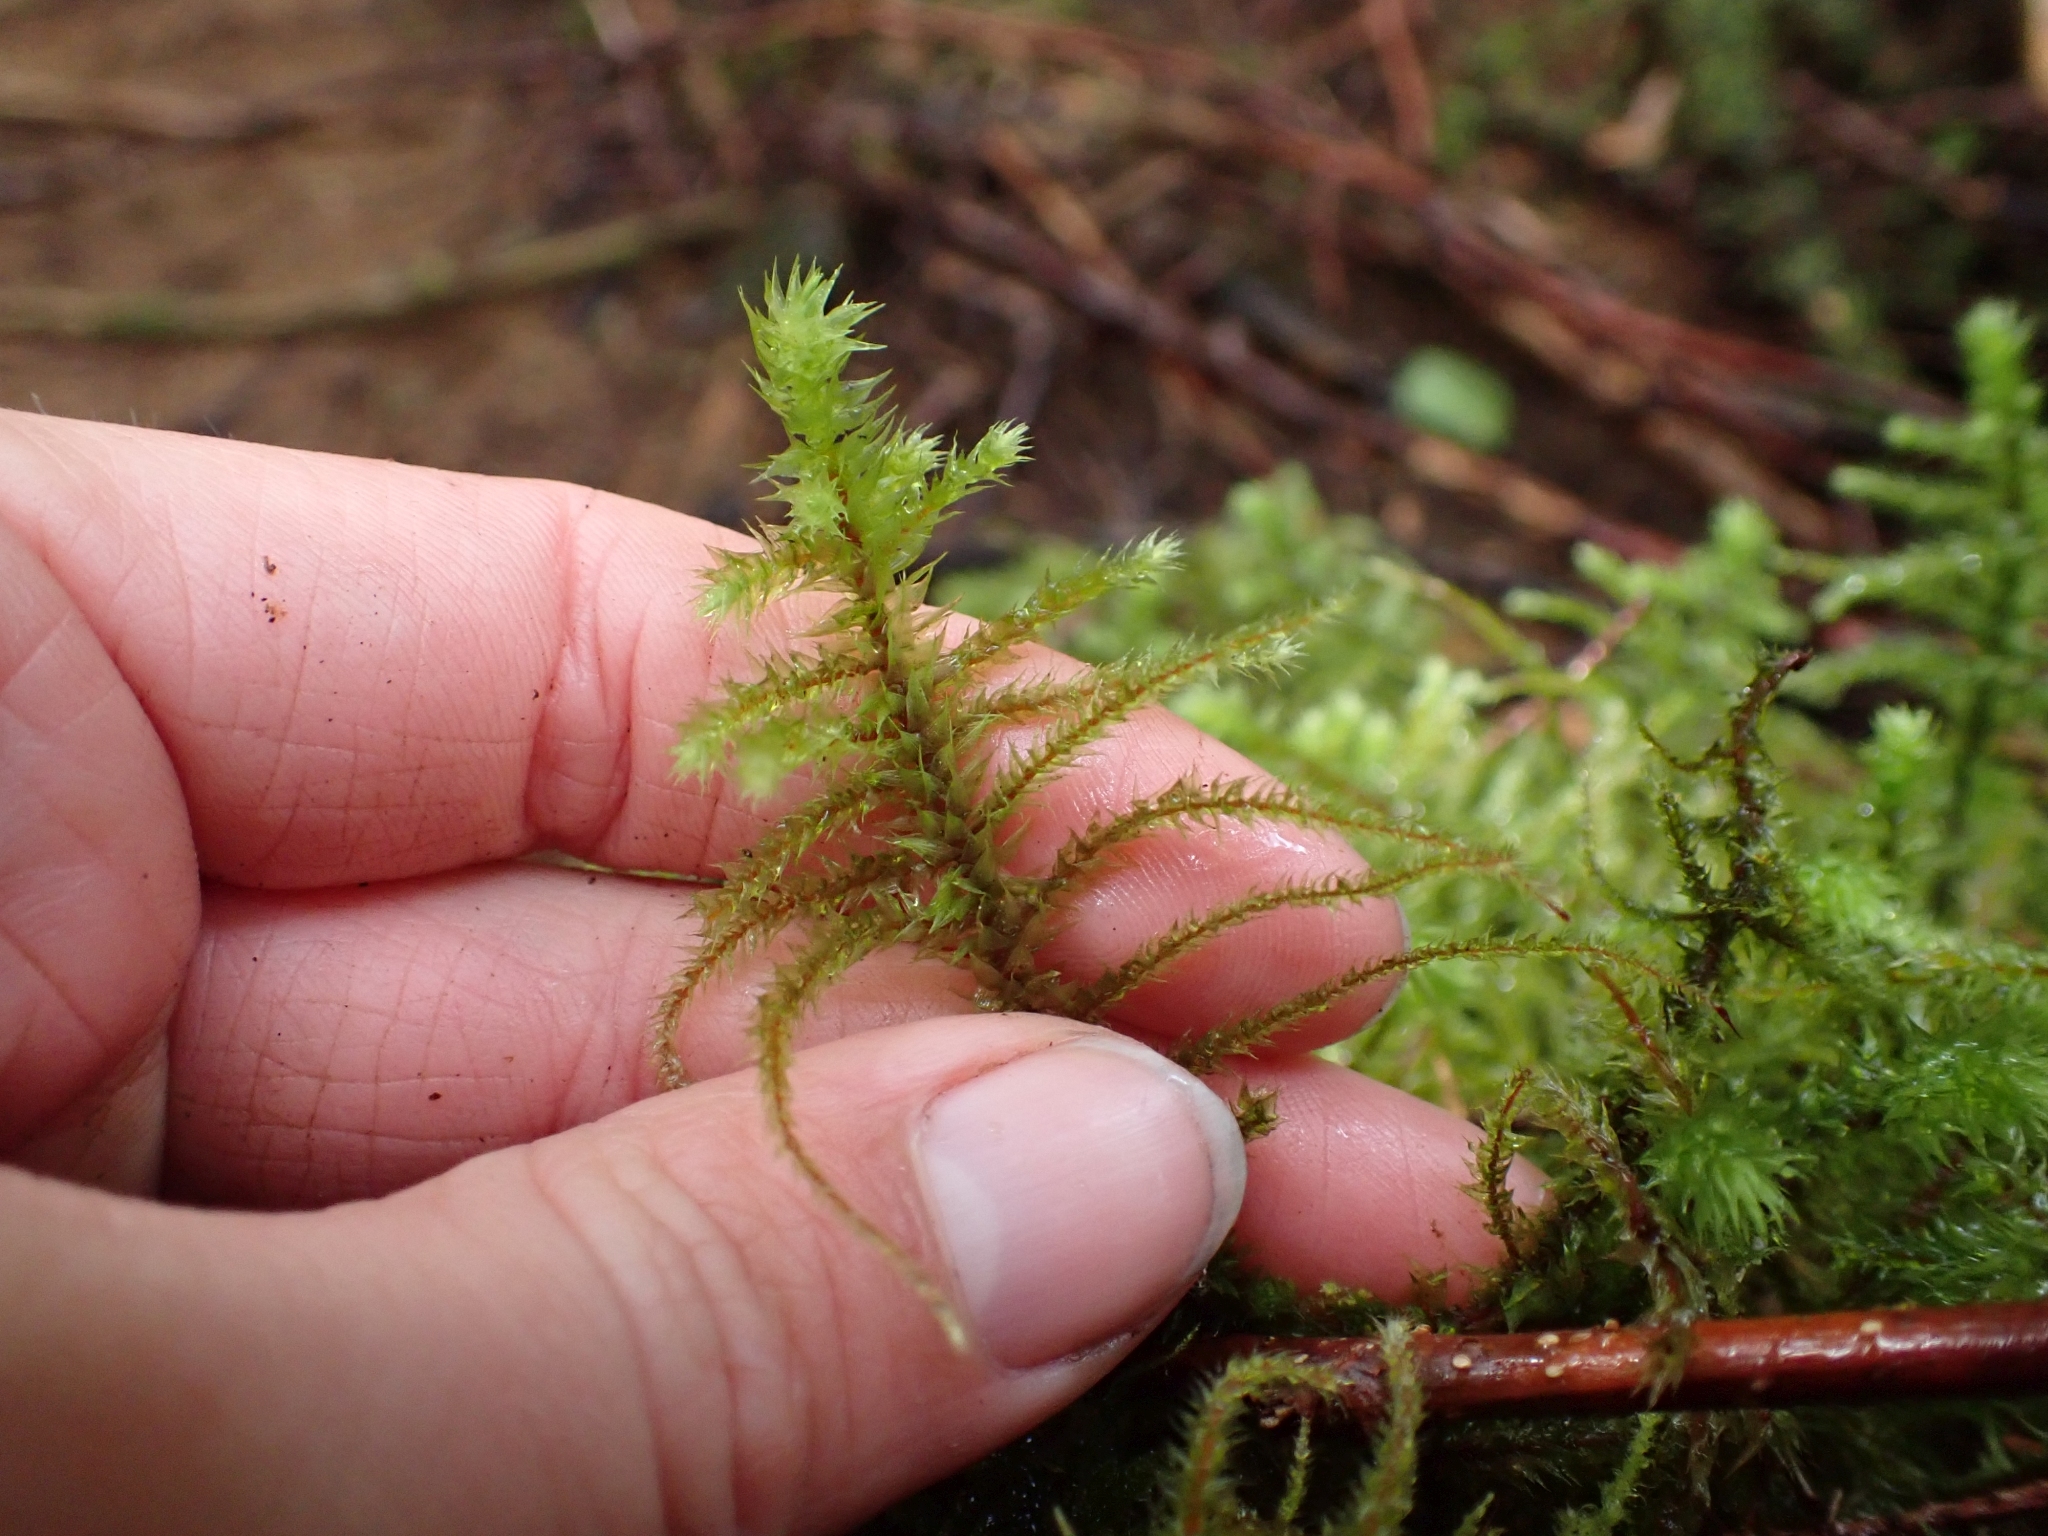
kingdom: Plantae
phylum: Bryophyta
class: Bryopsida
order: Hypnales
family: Hylocomiaceae
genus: Hylocomiadelphus
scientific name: Hylocomiadelphus triquetrus
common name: Rough goose neck moss
